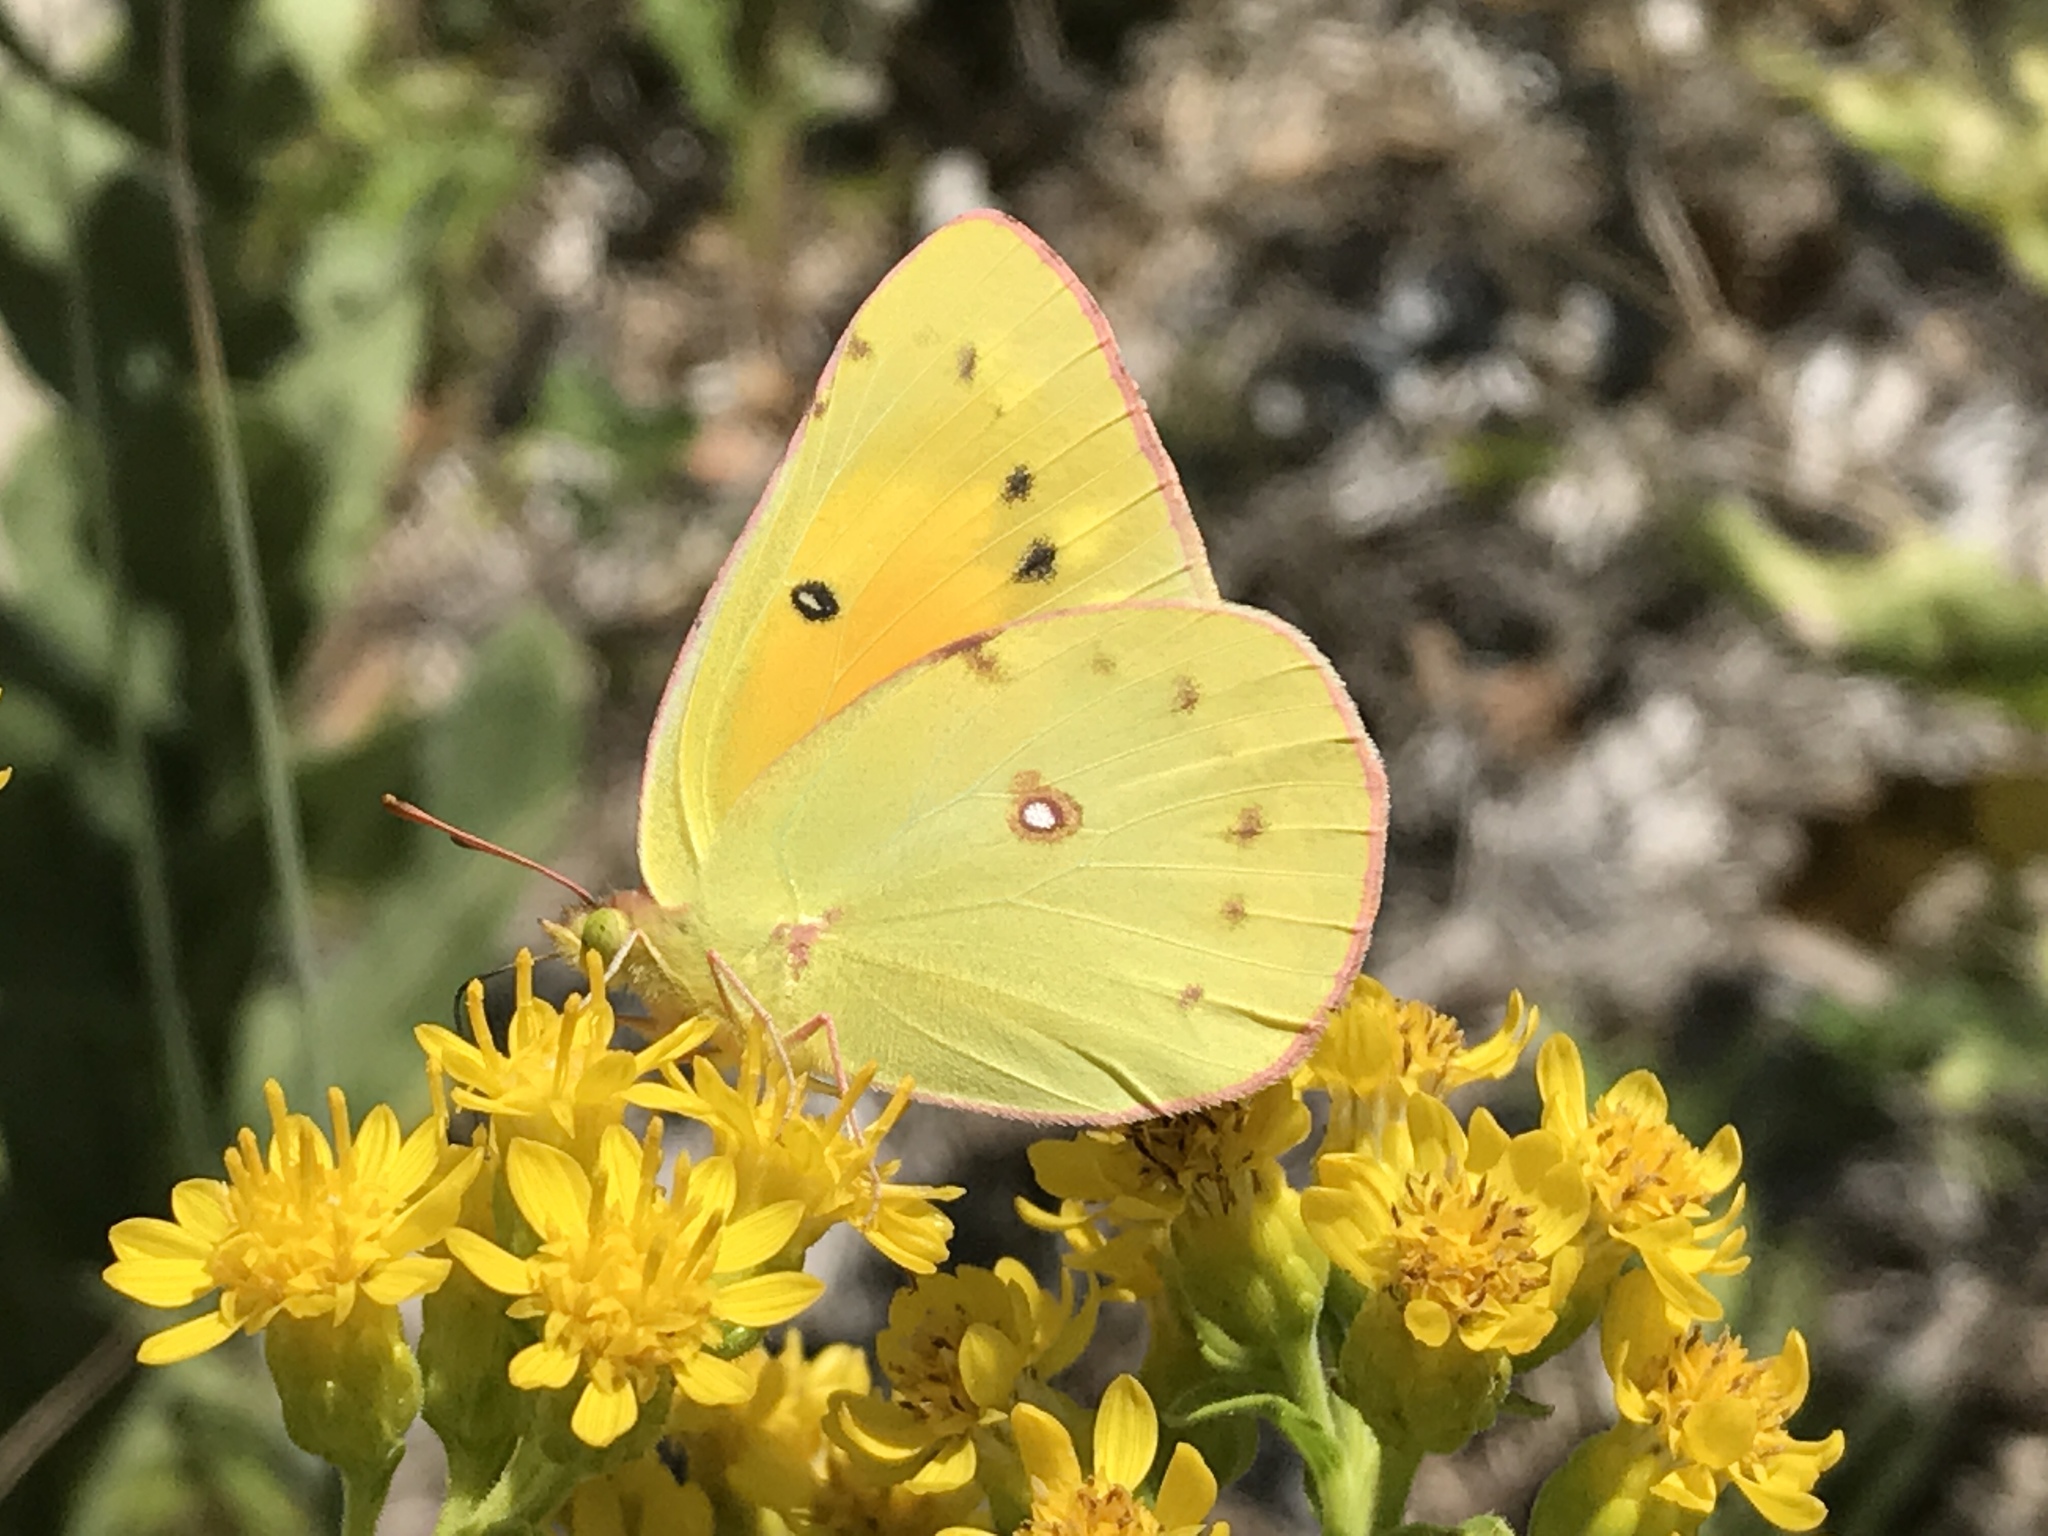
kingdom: Animalia
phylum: Arthropoda
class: Insecta
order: Lepidoptera
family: Pieridae
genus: Colias
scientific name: Colias eurytheme
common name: Alfalfa butterfly
